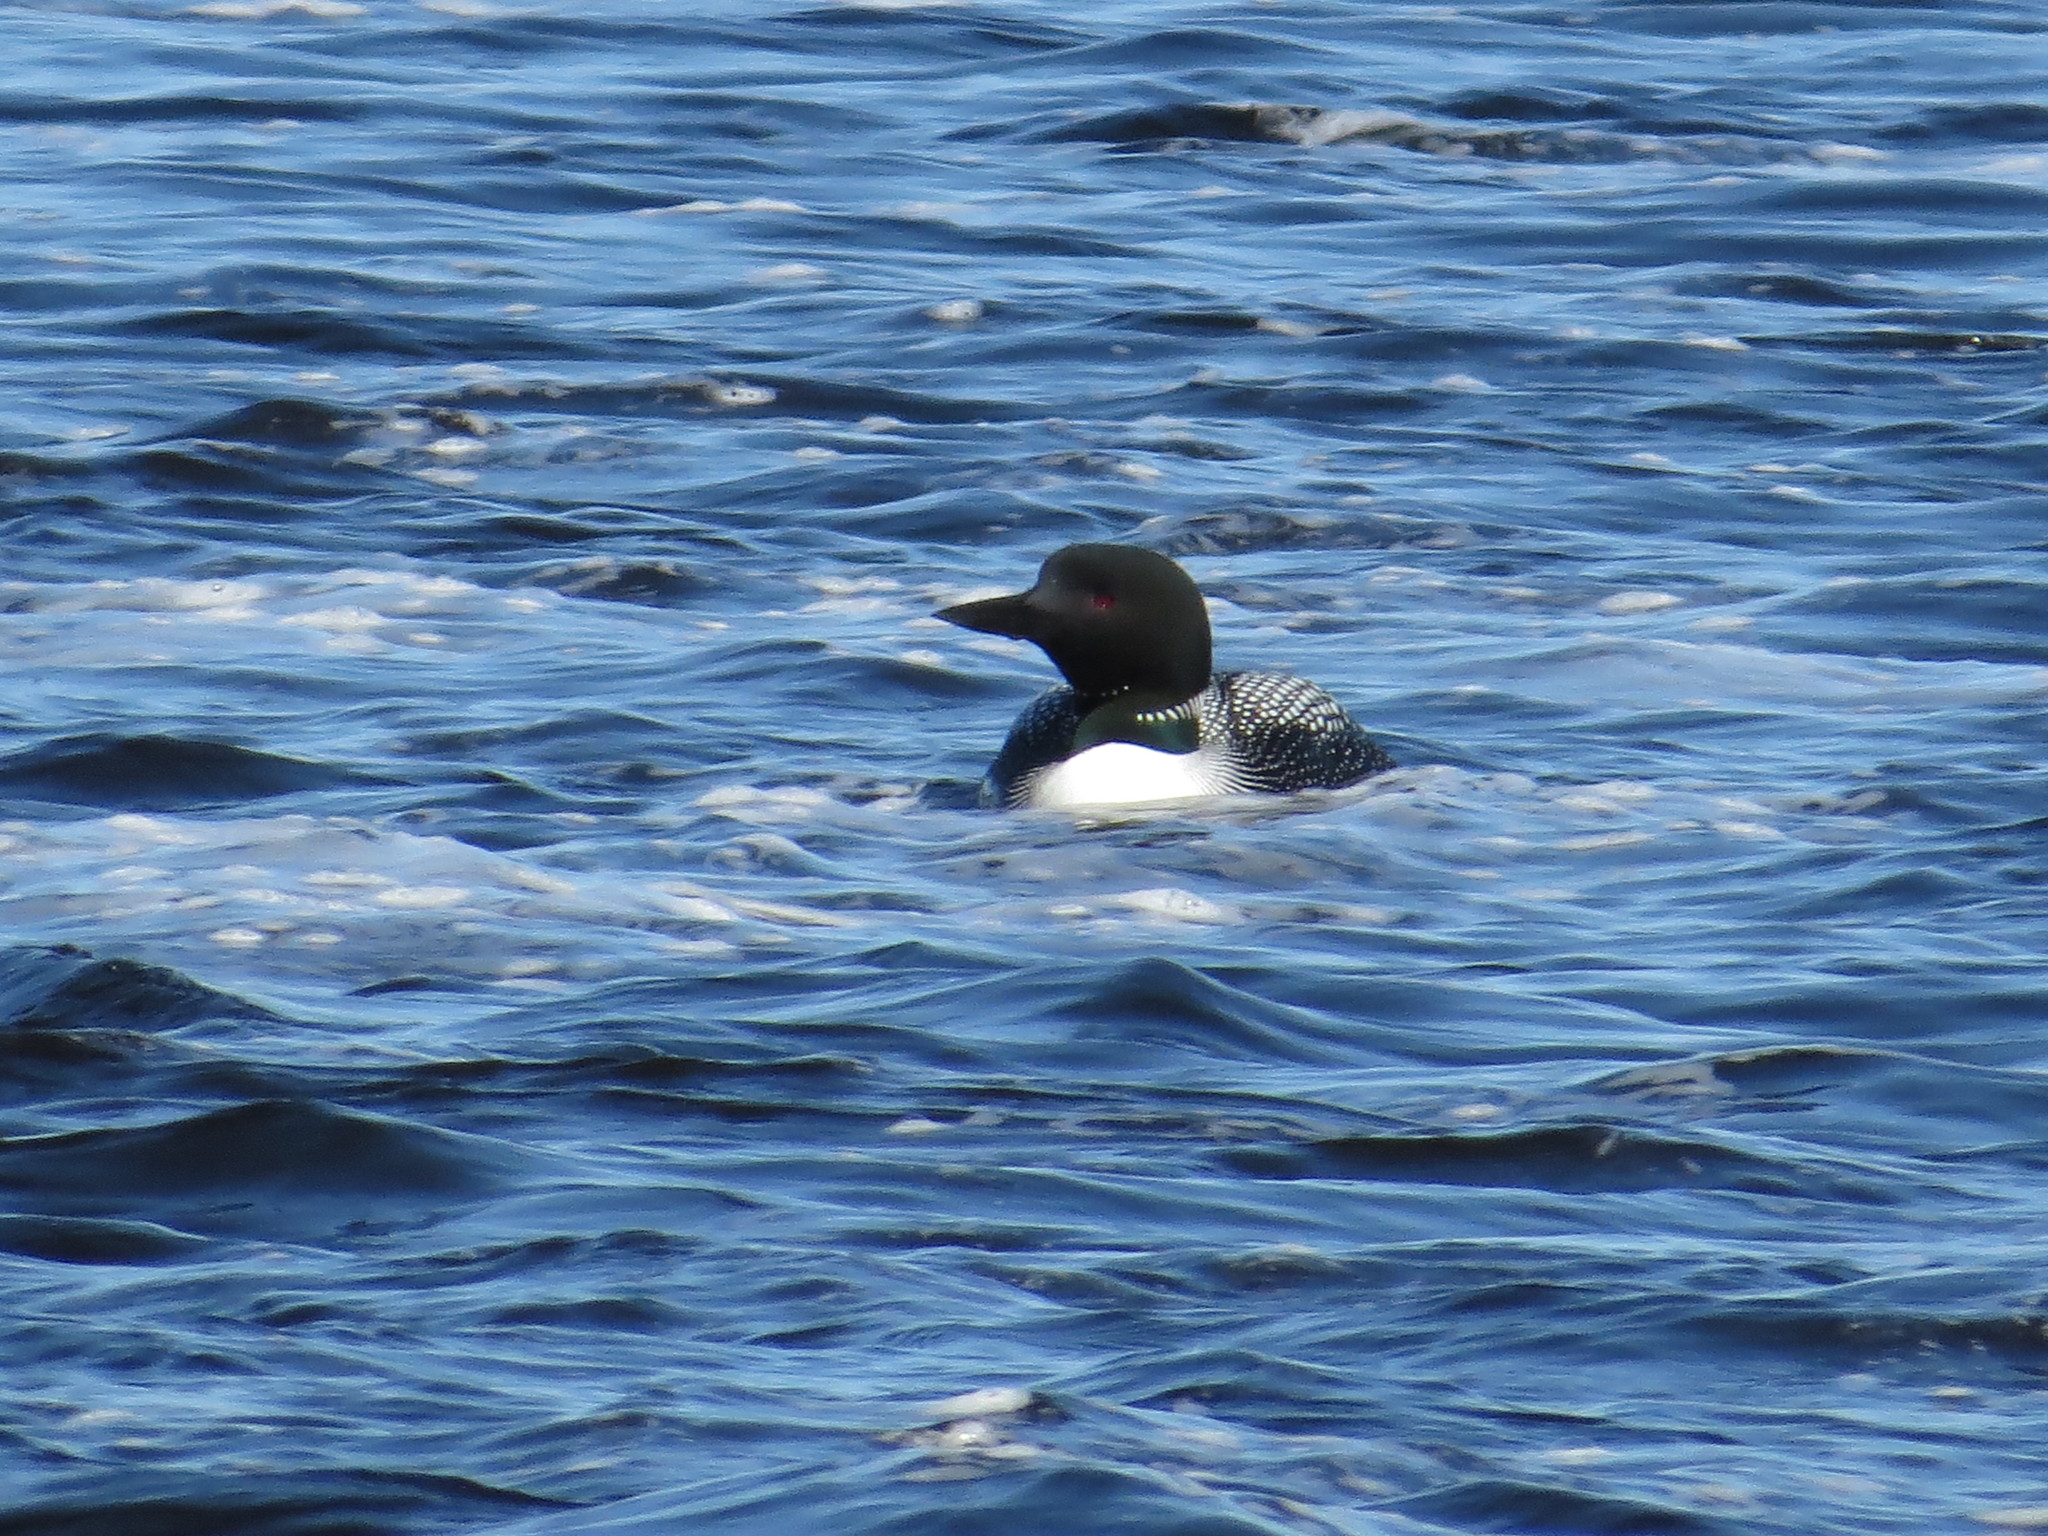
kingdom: Animalia
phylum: Chordata
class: Aves
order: Gaviiformes
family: Gaviidae
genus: Gavia
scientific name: Gavia immer
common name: Common loon
